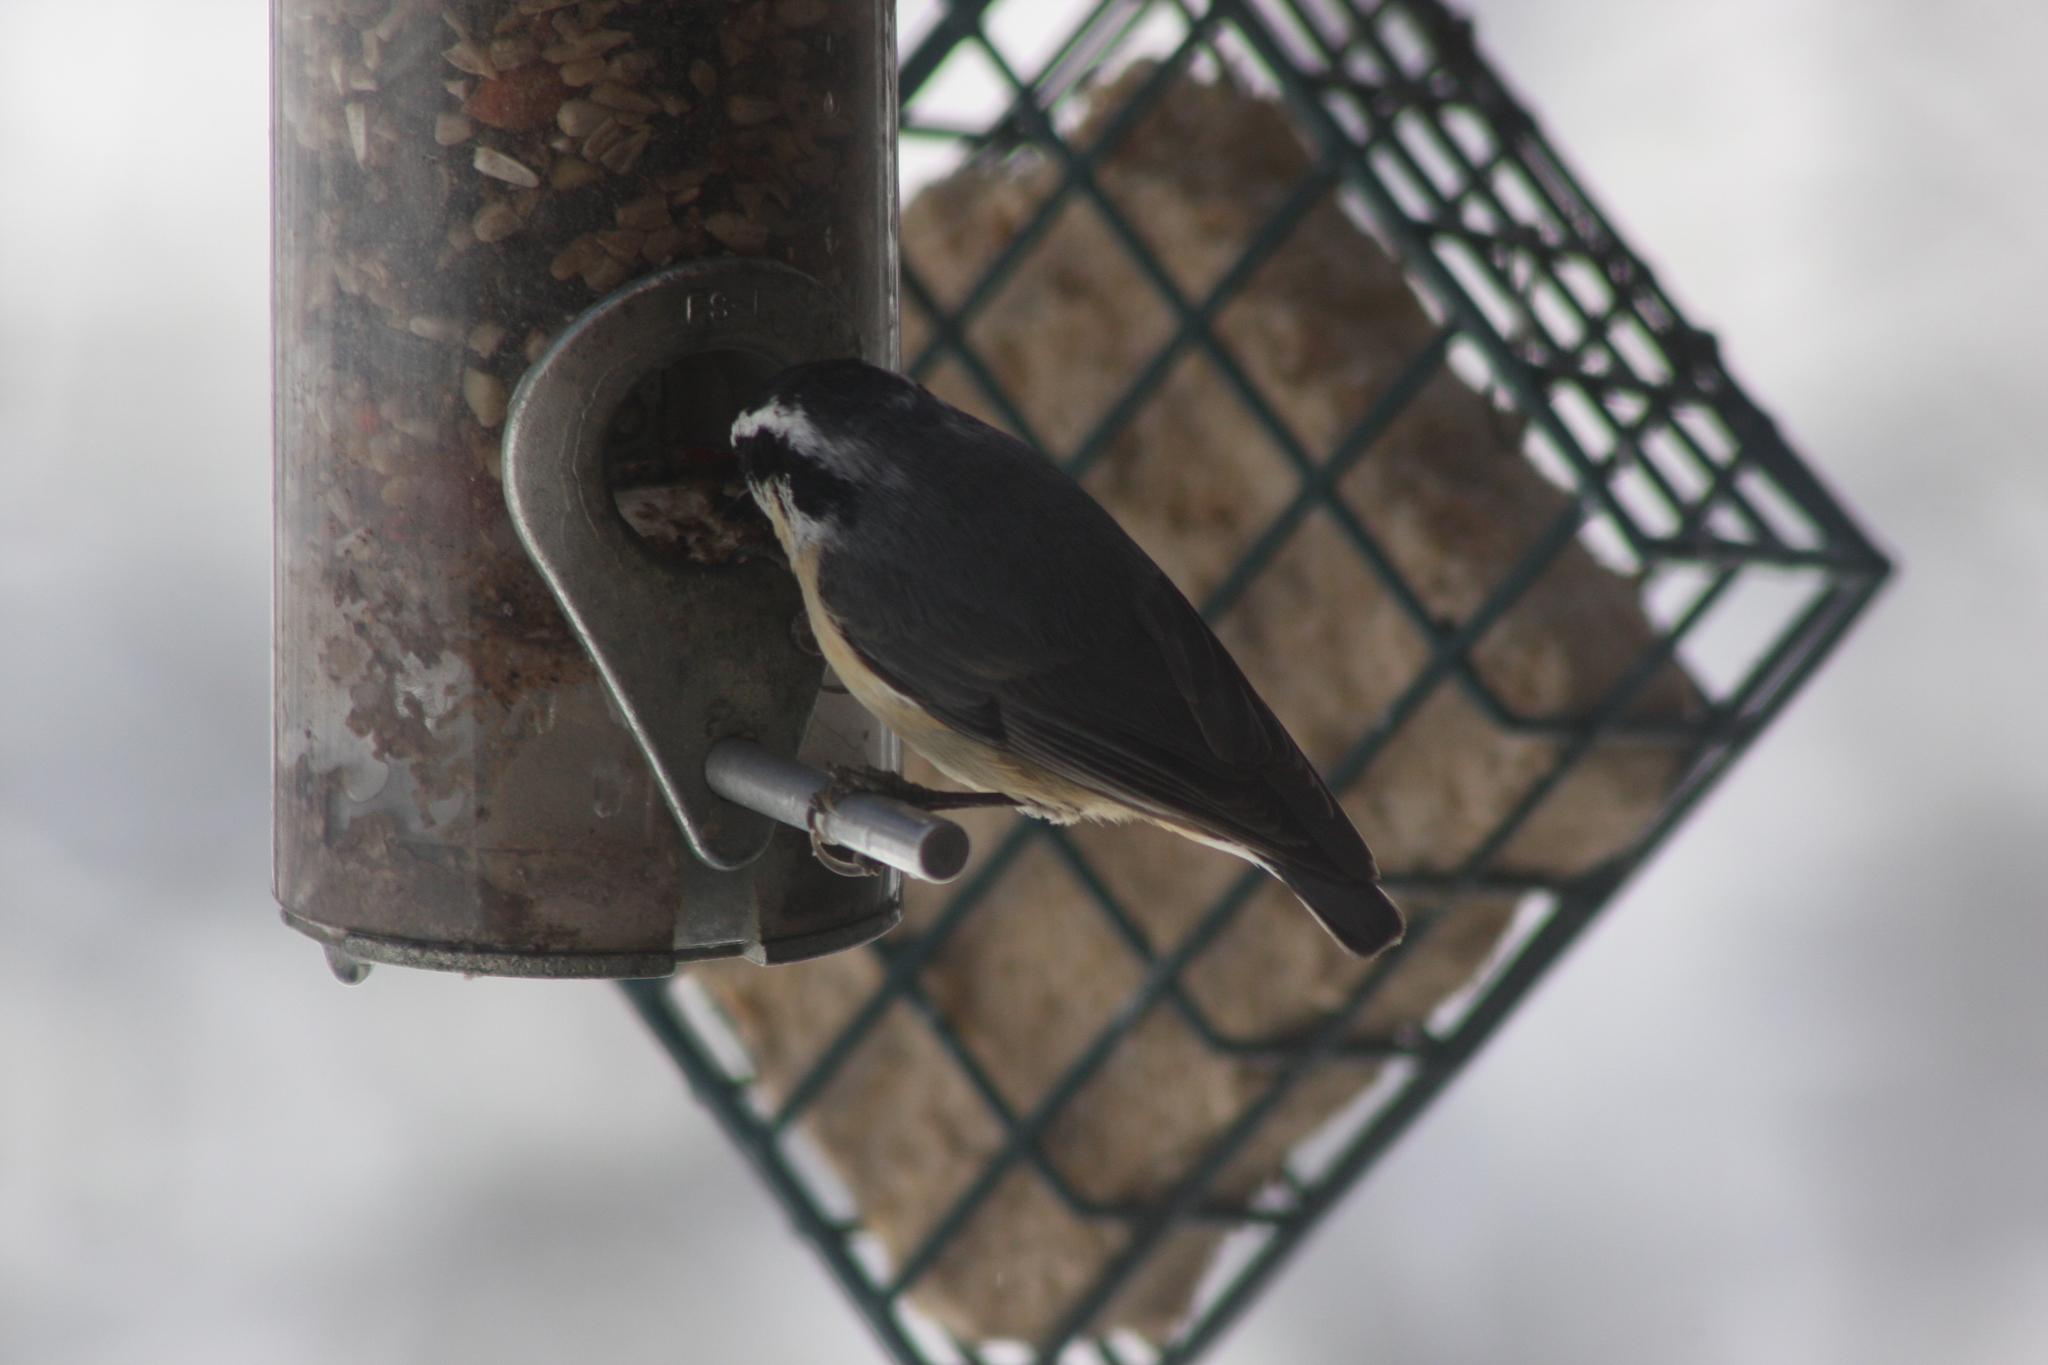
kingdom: Animalia
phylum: Chordata
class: Aves
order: Passeriformes
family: Sittidae
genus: Sitta
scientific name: Sitta canadensis
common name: Red-breasted nuthatch
